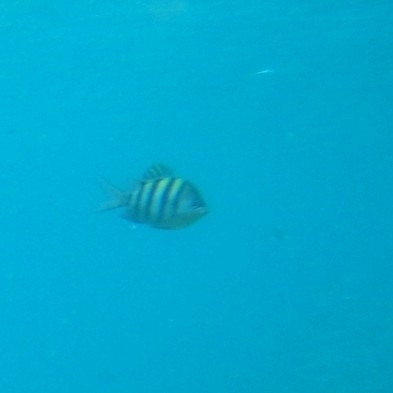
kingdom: Animalia
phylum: Chordata
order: Perciformes
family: Pomacentridae
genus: Abudefduf
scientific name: Abudefduf saxatilis
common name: Sergeant major
